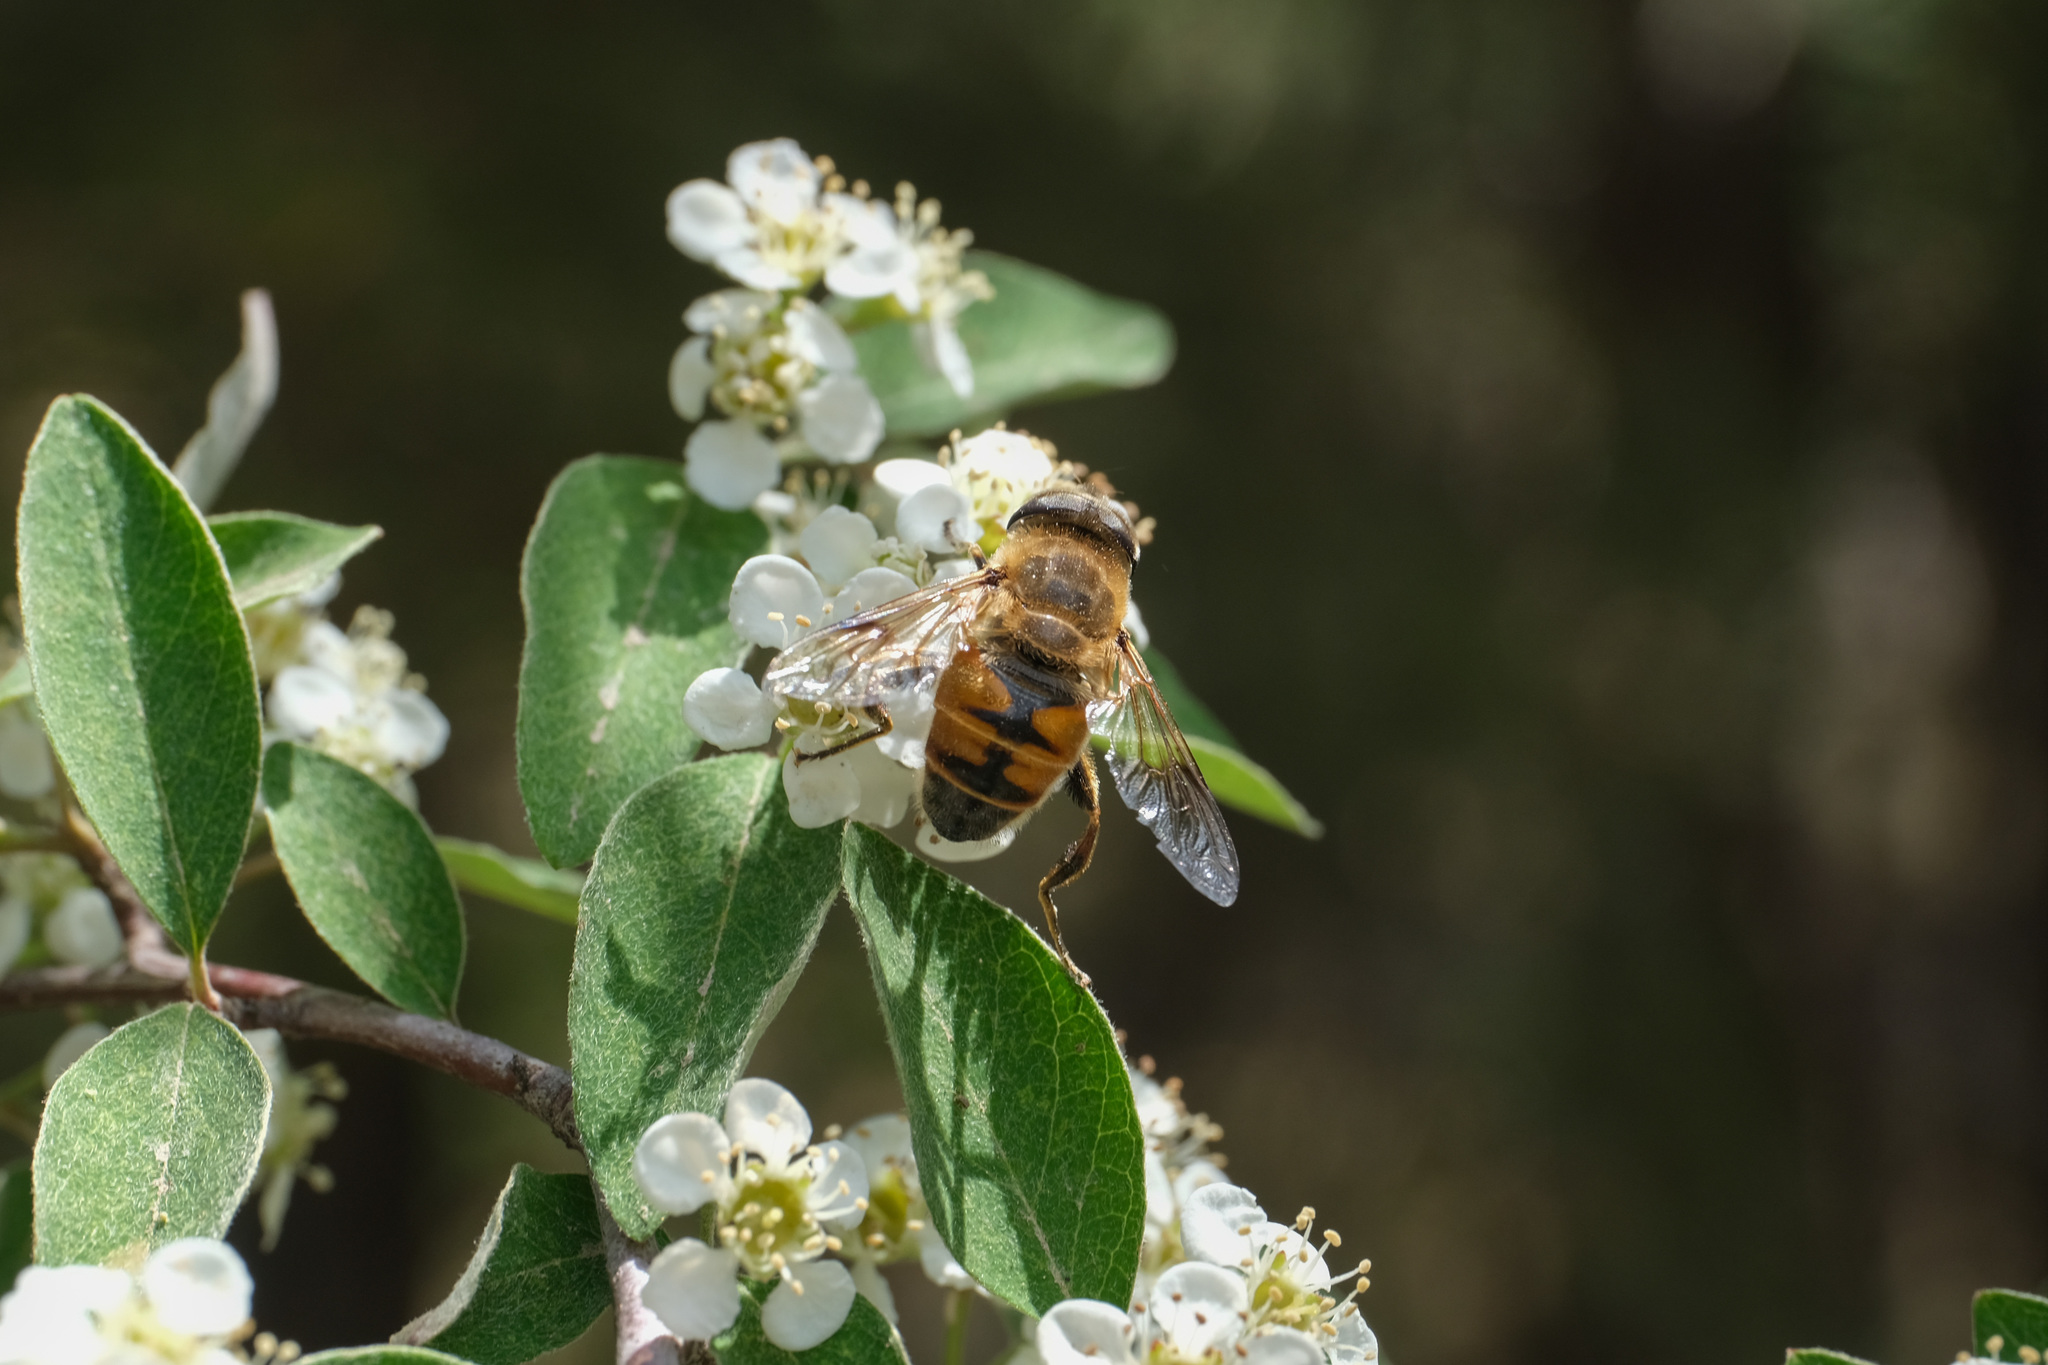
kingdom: Animalia
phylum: Arthropoda
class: Insecta
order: Diptera
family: Syrphidae
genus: Eristalis
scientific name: Eristalis tenax
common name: Drone fly
